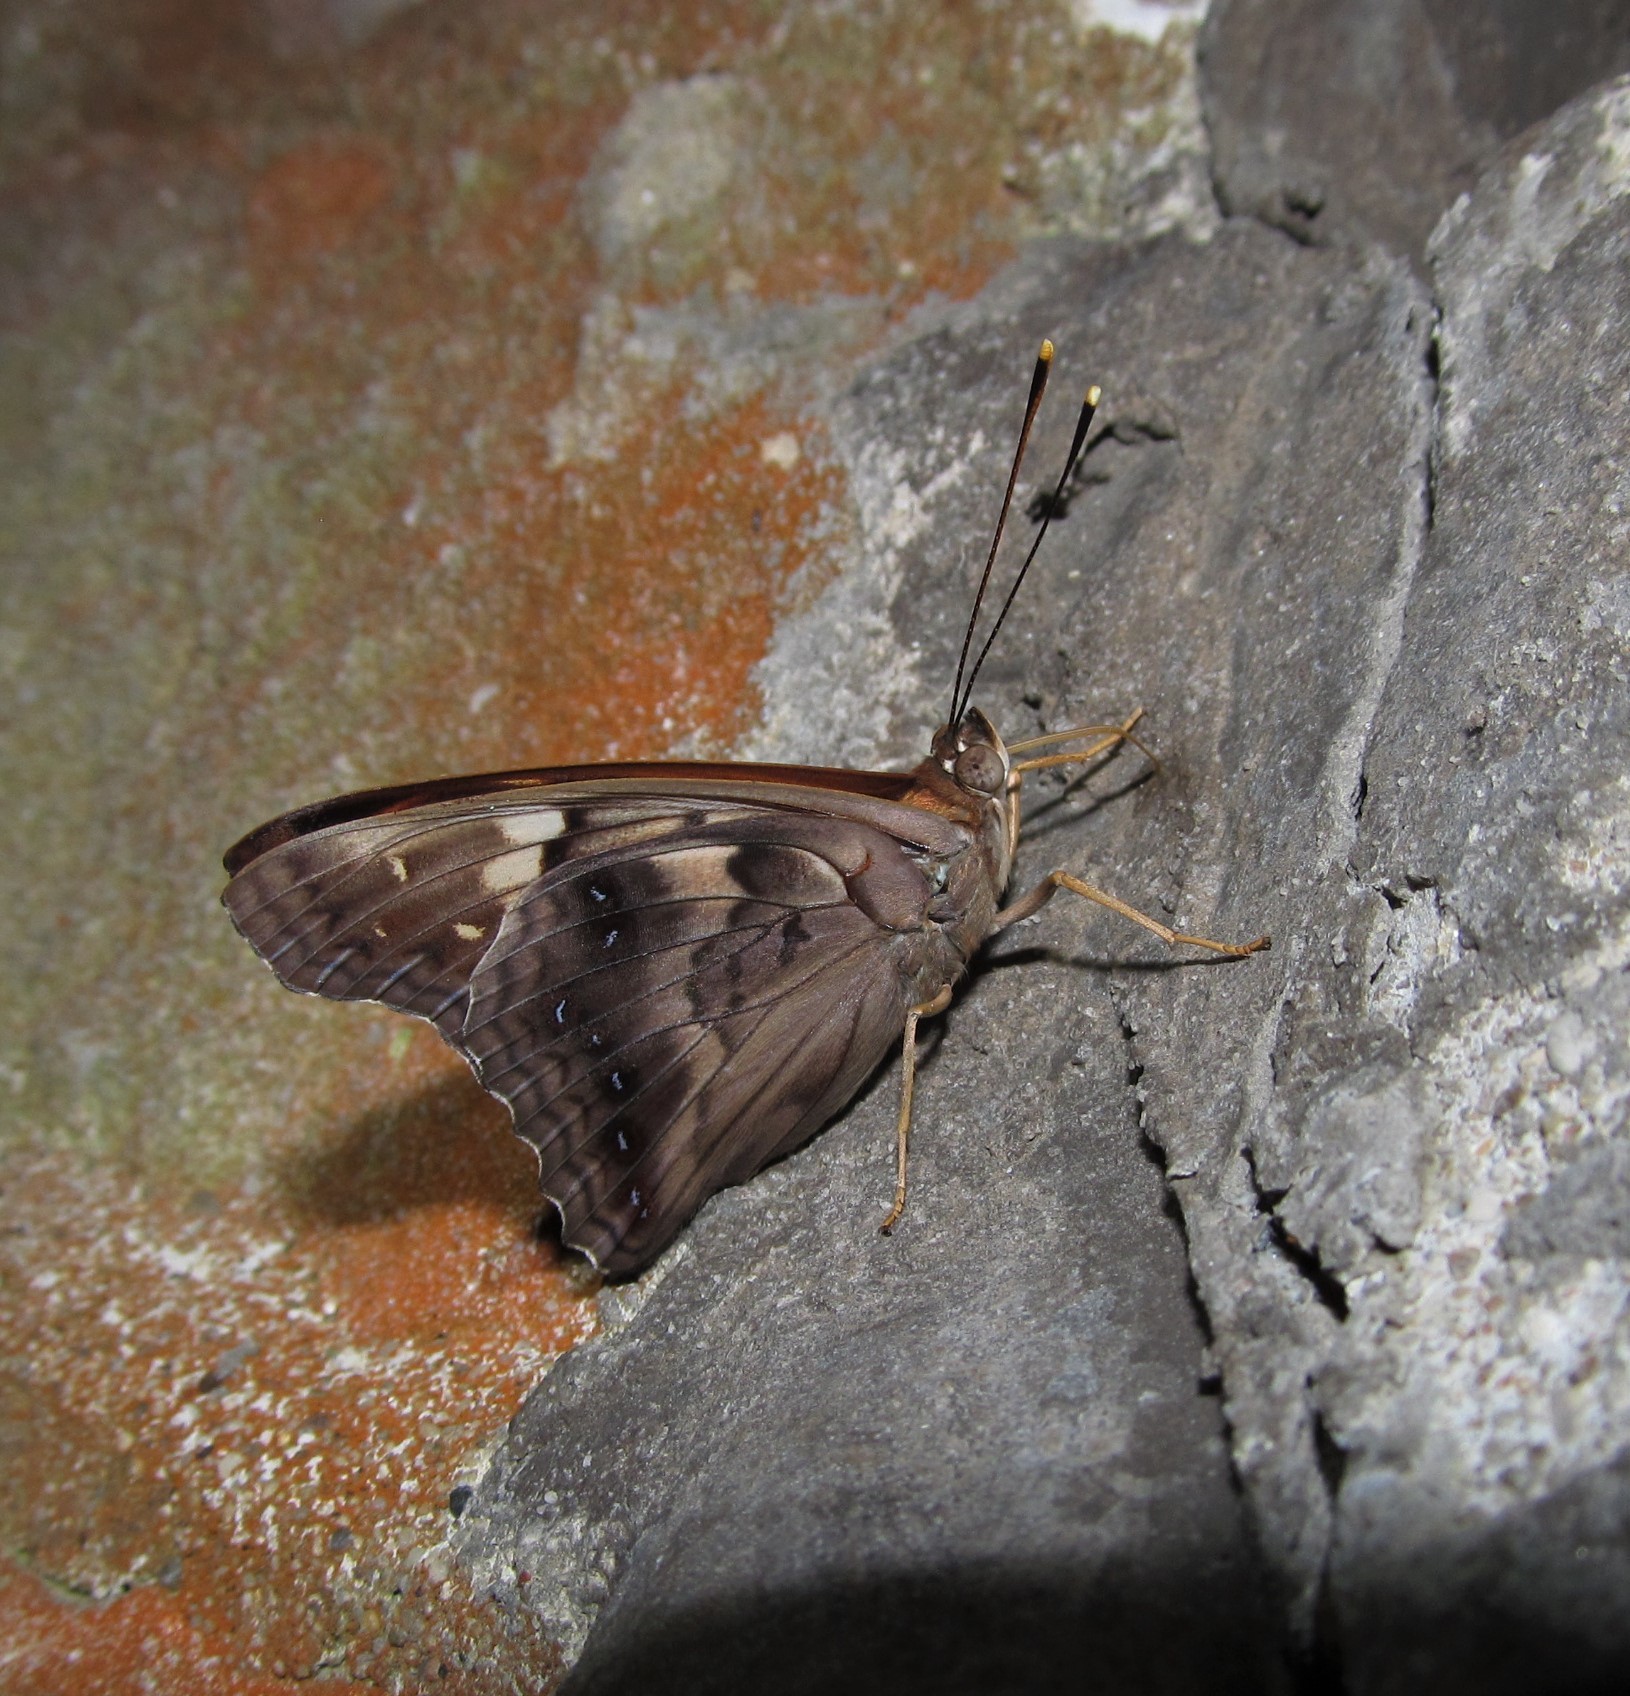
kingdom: Animalia
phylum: Arthropoda
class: Insecta
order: Lepidoptera
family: Nymphalidae
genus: Asterocampa
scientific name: Asterocampa clyton
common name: Tawny emperor
